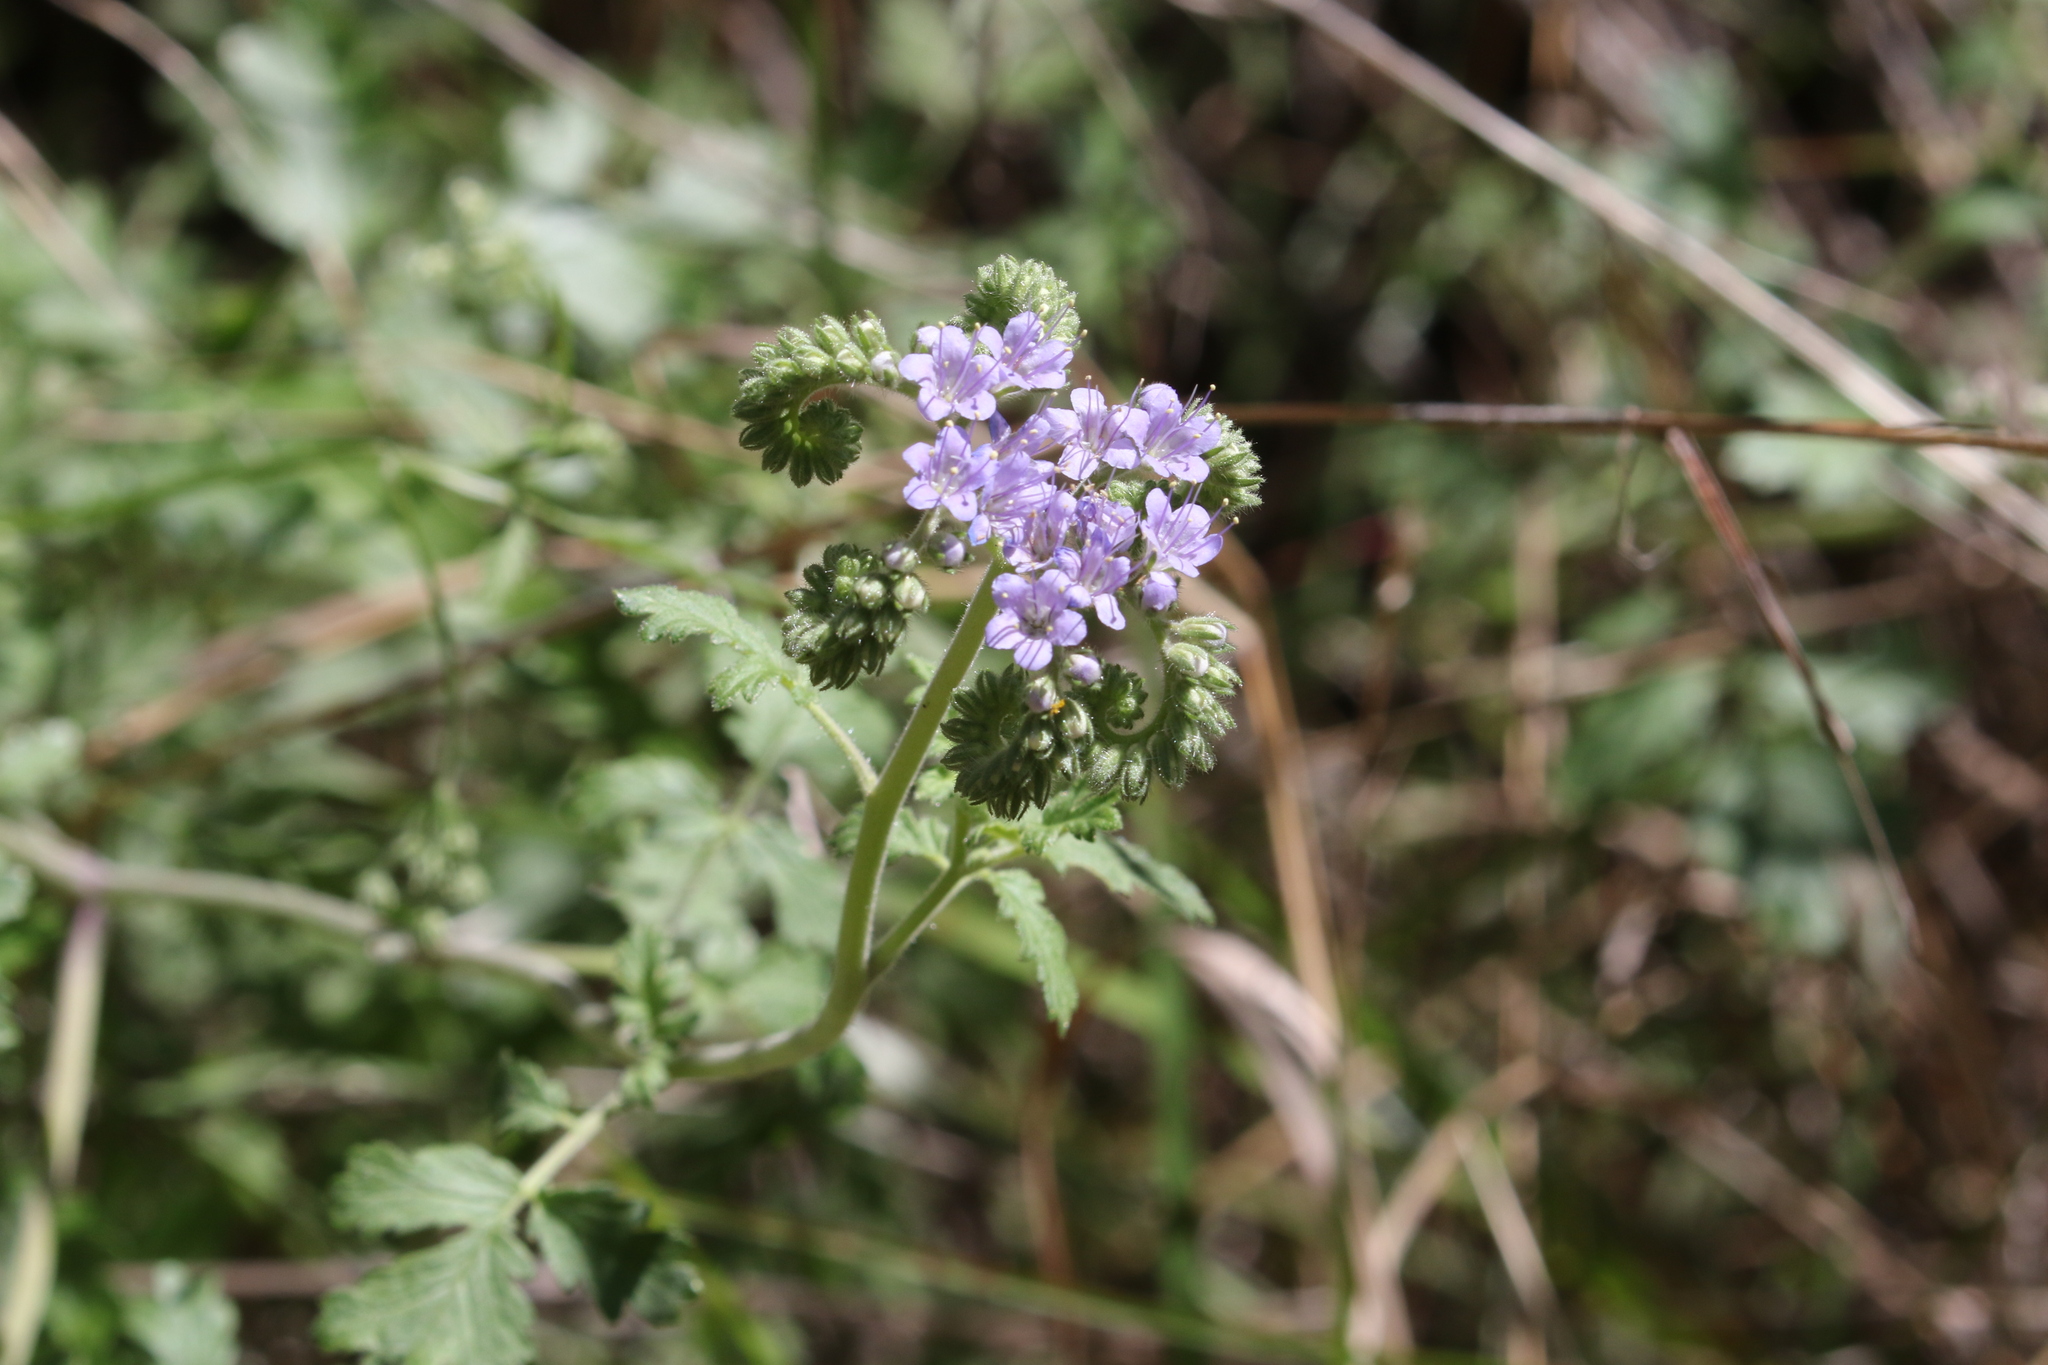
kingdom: Plantae
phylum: Tracheophyta
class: Magnoliopsida
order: Boraginales
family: Hydrophyllaceae
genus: Phacelia
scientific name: Phacelia congesta
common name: Blue curls
